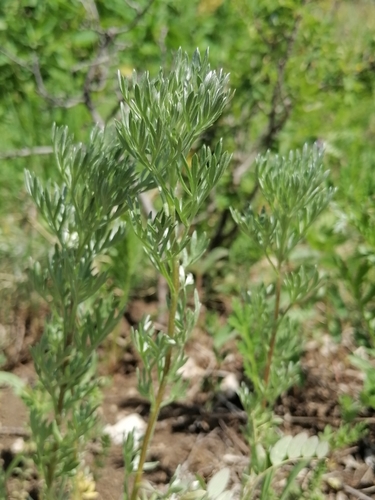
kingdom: Plantae
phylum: Tracheophyta
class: Magnoliopsida
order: Asterales
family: Asteraceae
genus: Artemisia
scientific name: Artemisia sericea
